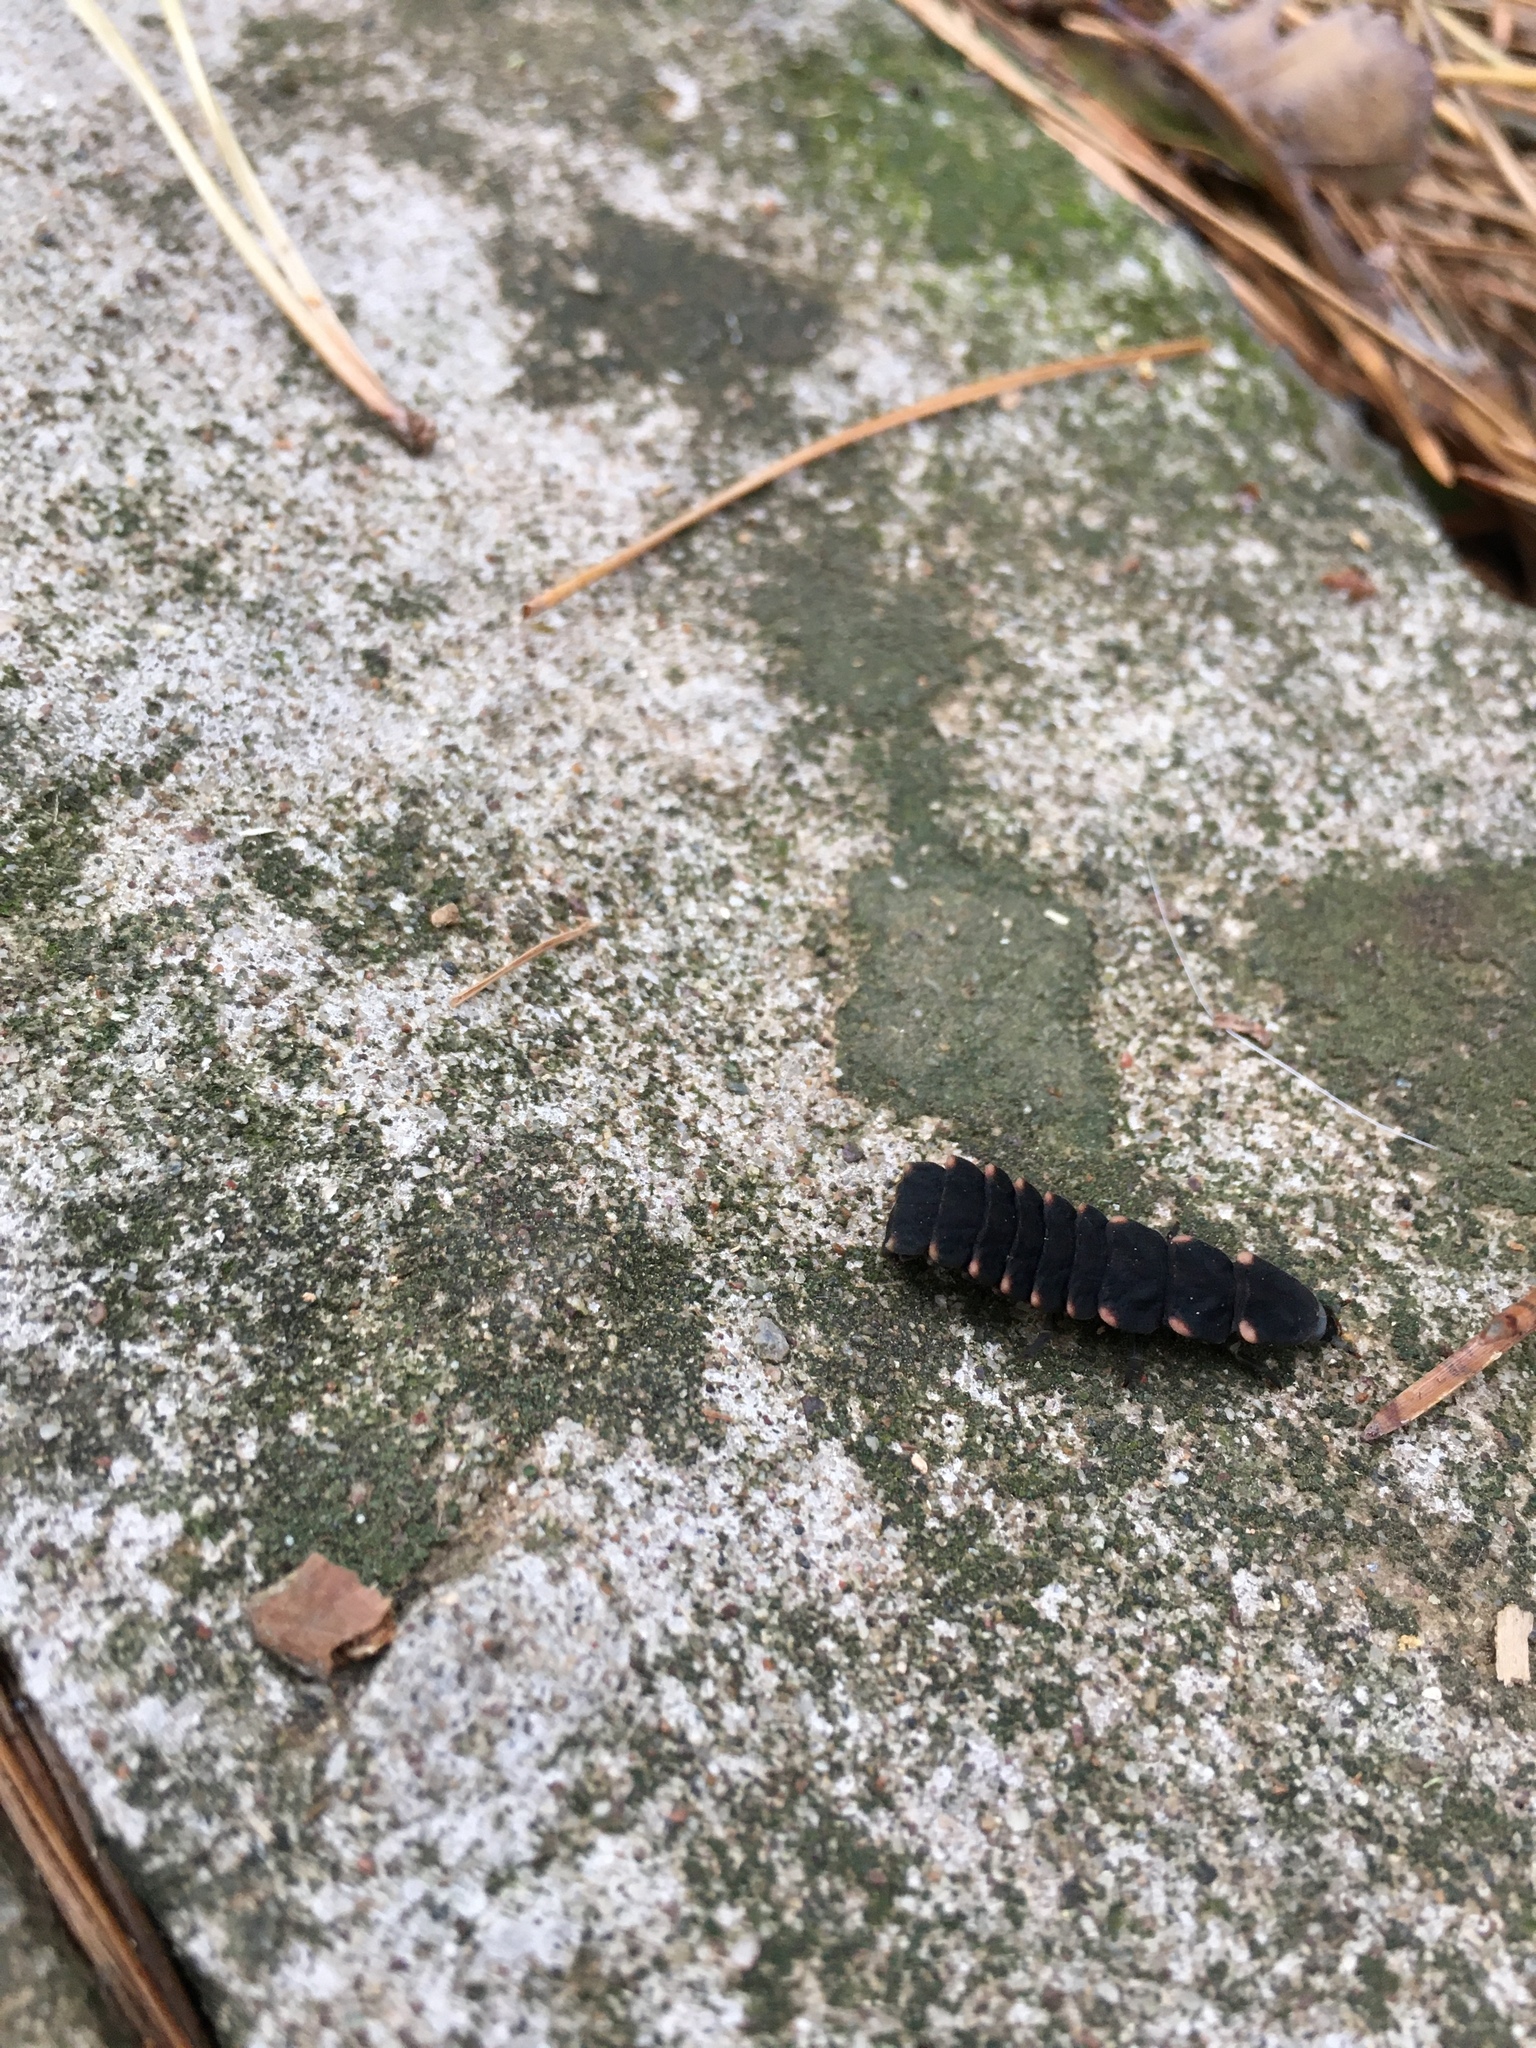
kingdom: Animalia
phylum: Arthropoda
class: Insecta
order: Coleoptera
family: Lampyridae
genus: Lampyris
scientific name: Lampyris noctiluca
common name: Glow-worm
